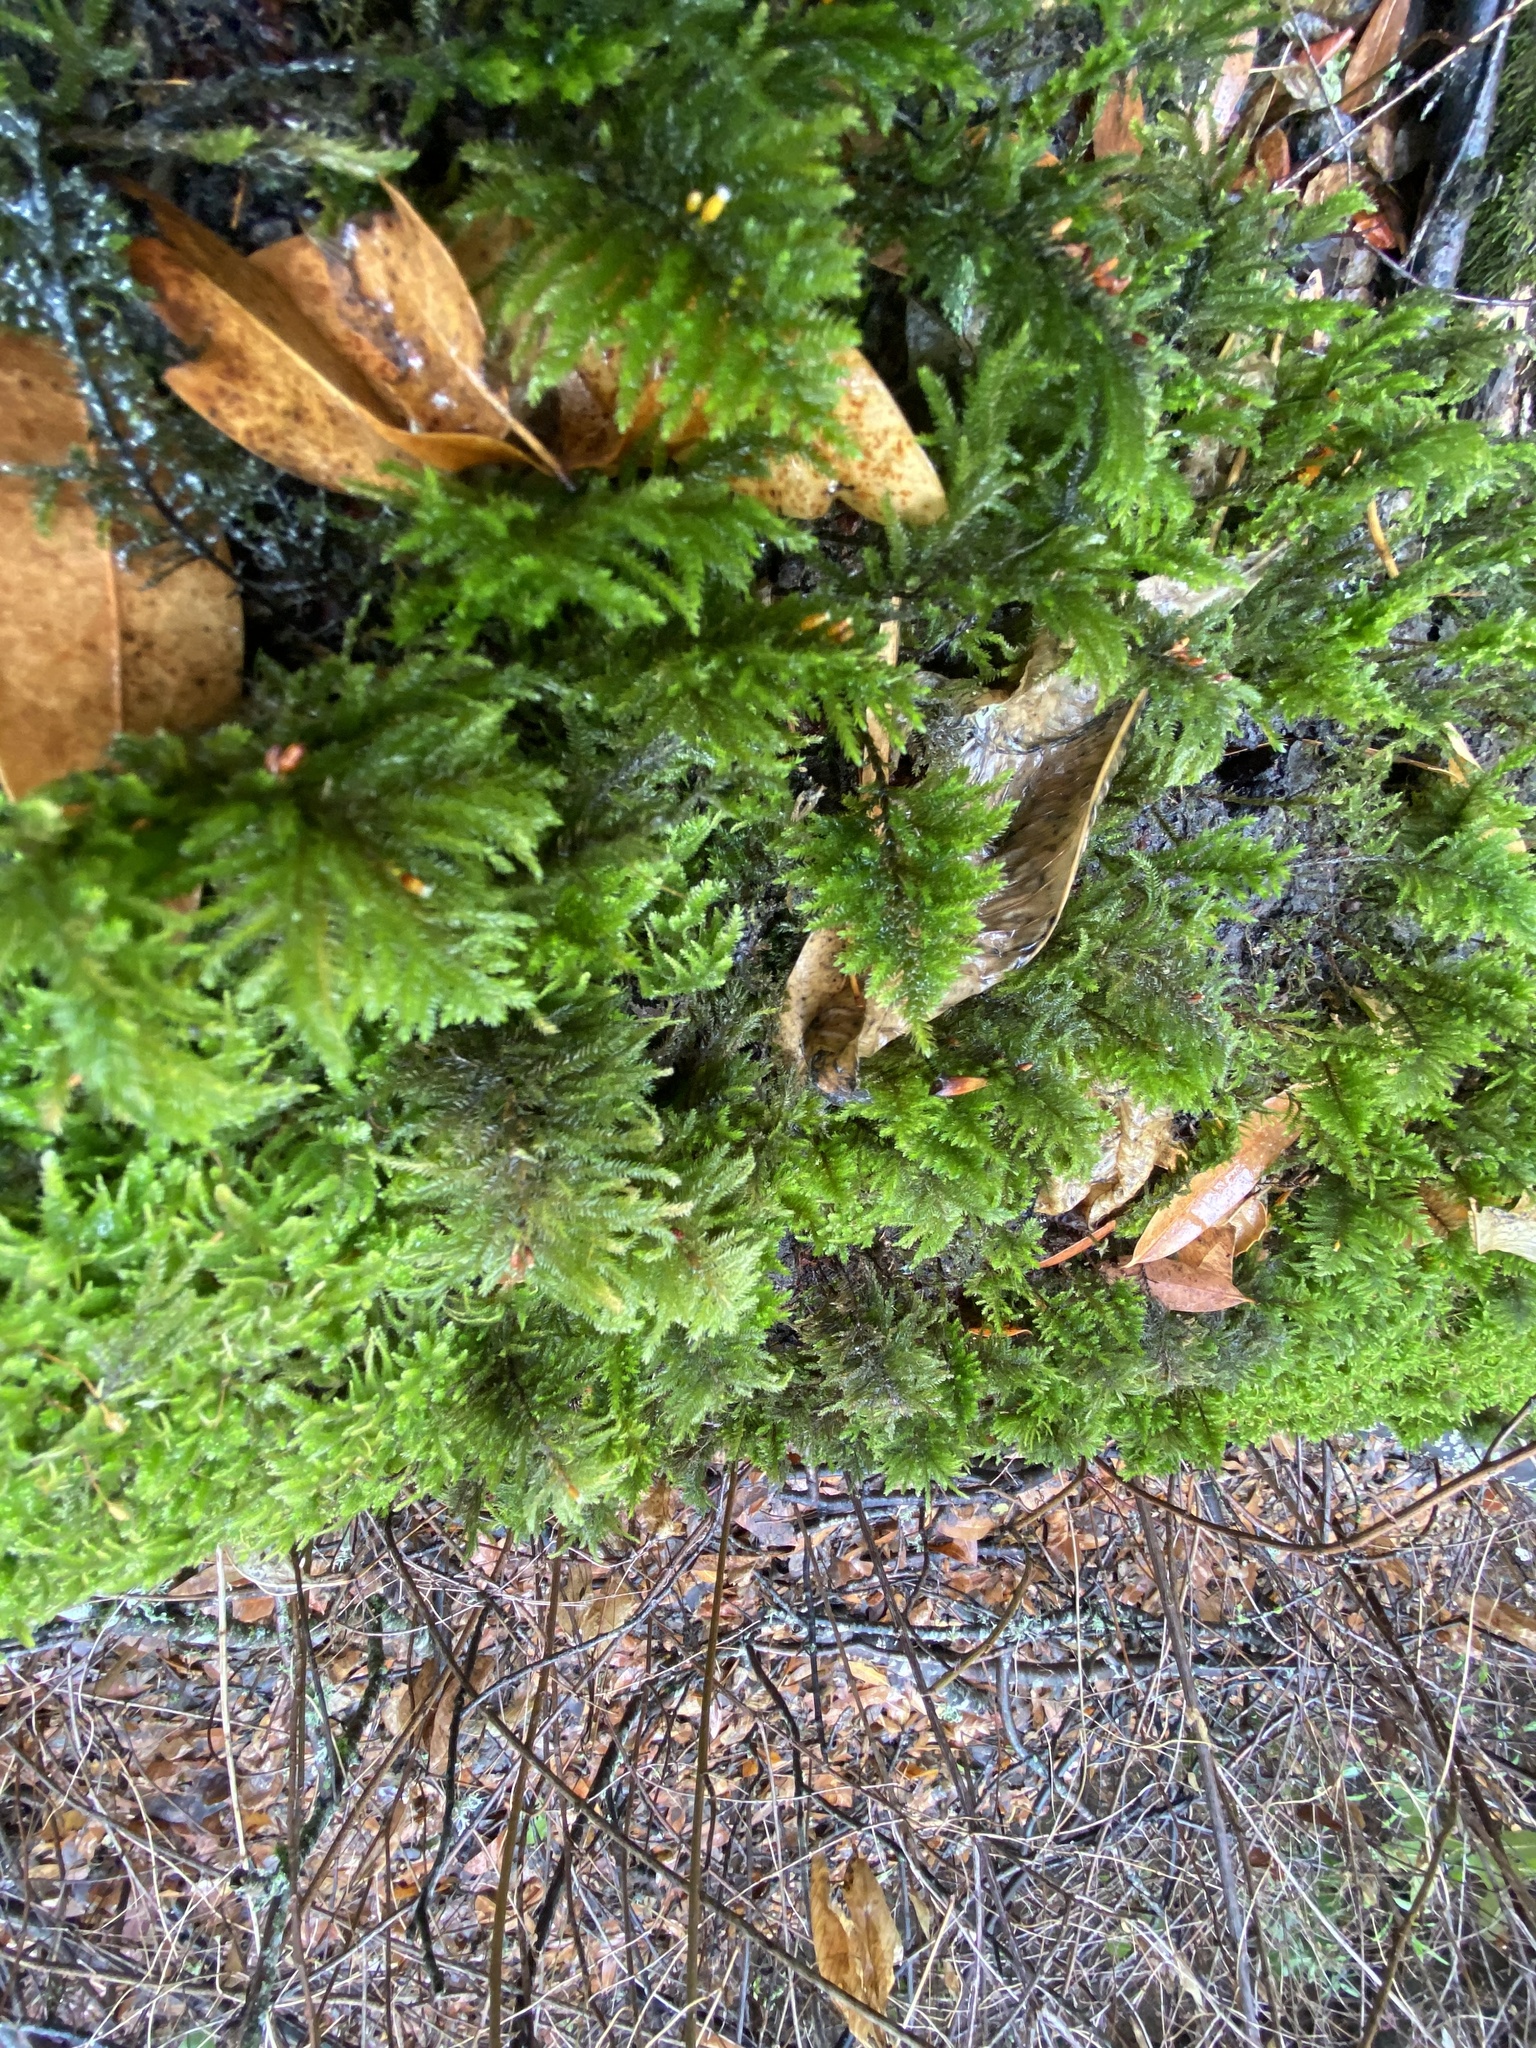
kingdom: Plantae
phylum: Bryophyta
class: Bryopsida
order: Hypnales
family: Cryphaeaceae
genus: Dendroalsia
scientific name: Dendroalsia abietina
